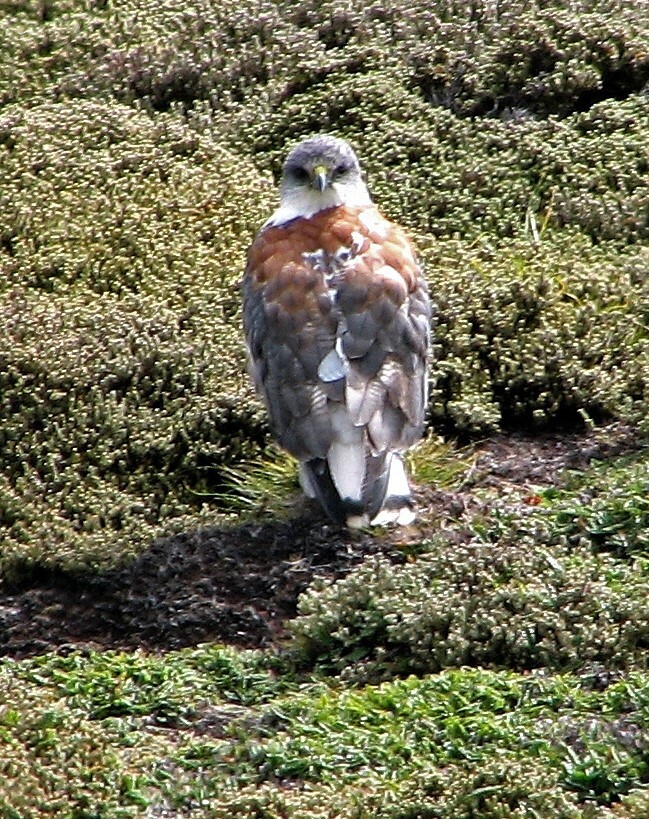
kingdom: Animalia
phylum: Chordata
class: Aves
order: Accipitriformes
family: Accipitridae
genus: Buteo
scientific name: Buteo polyosoma
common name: Variable hawk
